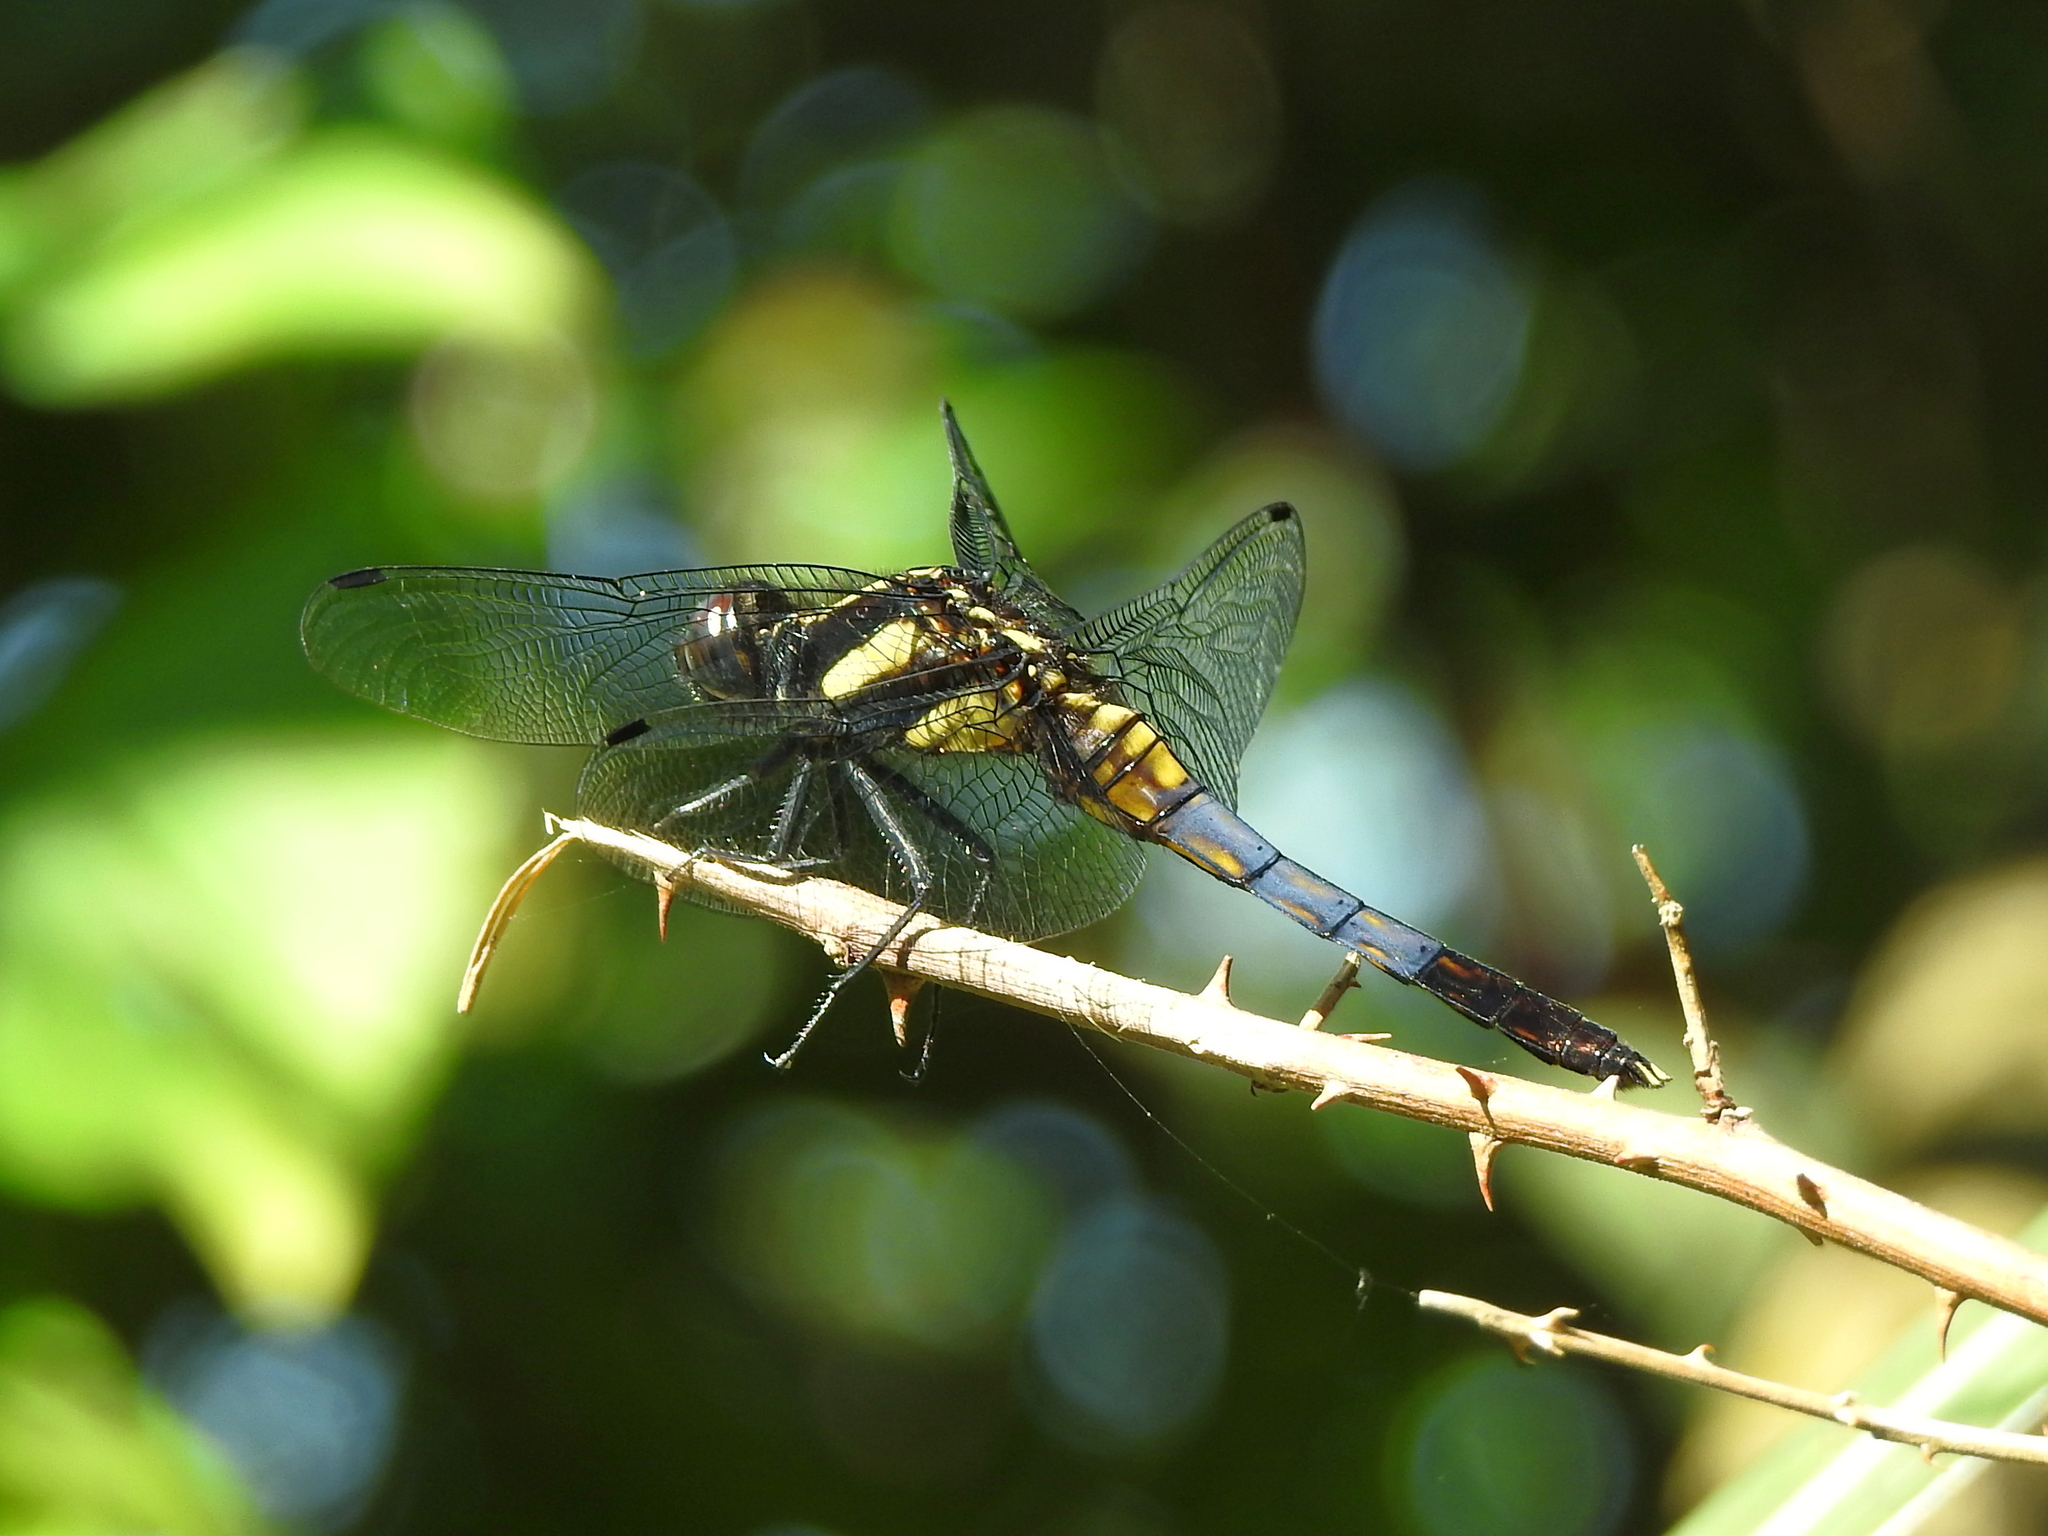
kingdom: Animalia
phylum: Arthropoda
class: Insecta
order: Odonata
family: Libellulidae
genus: Orthetrum
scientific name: Orthetrum triangulare
